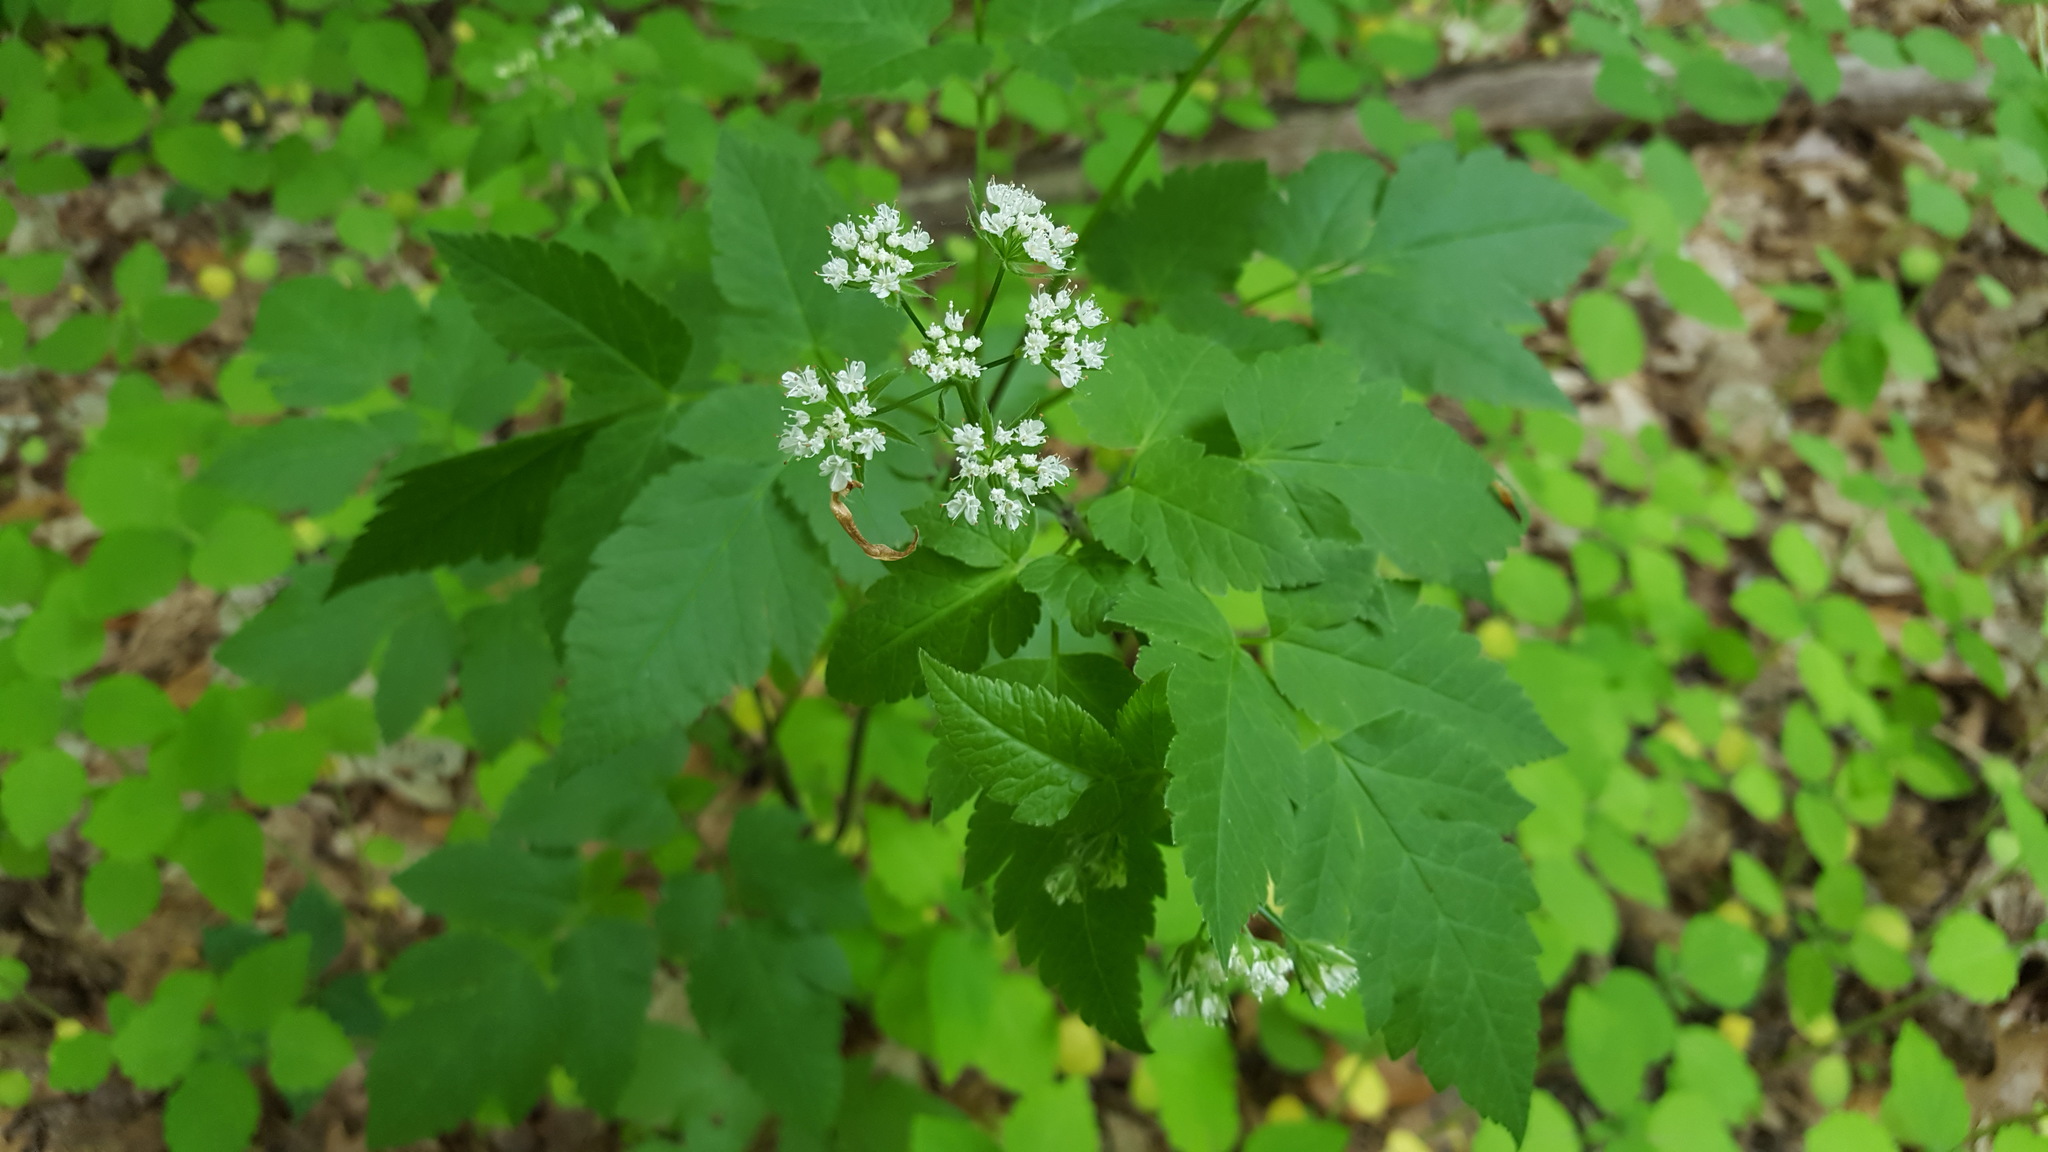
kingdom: Plantae
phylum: Tracheophyta
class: Magnoliopsida
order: Apiales
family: Apiaceae
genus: Cryptotaenia
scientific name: Cryptotaenia canadensis
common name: Honewort
